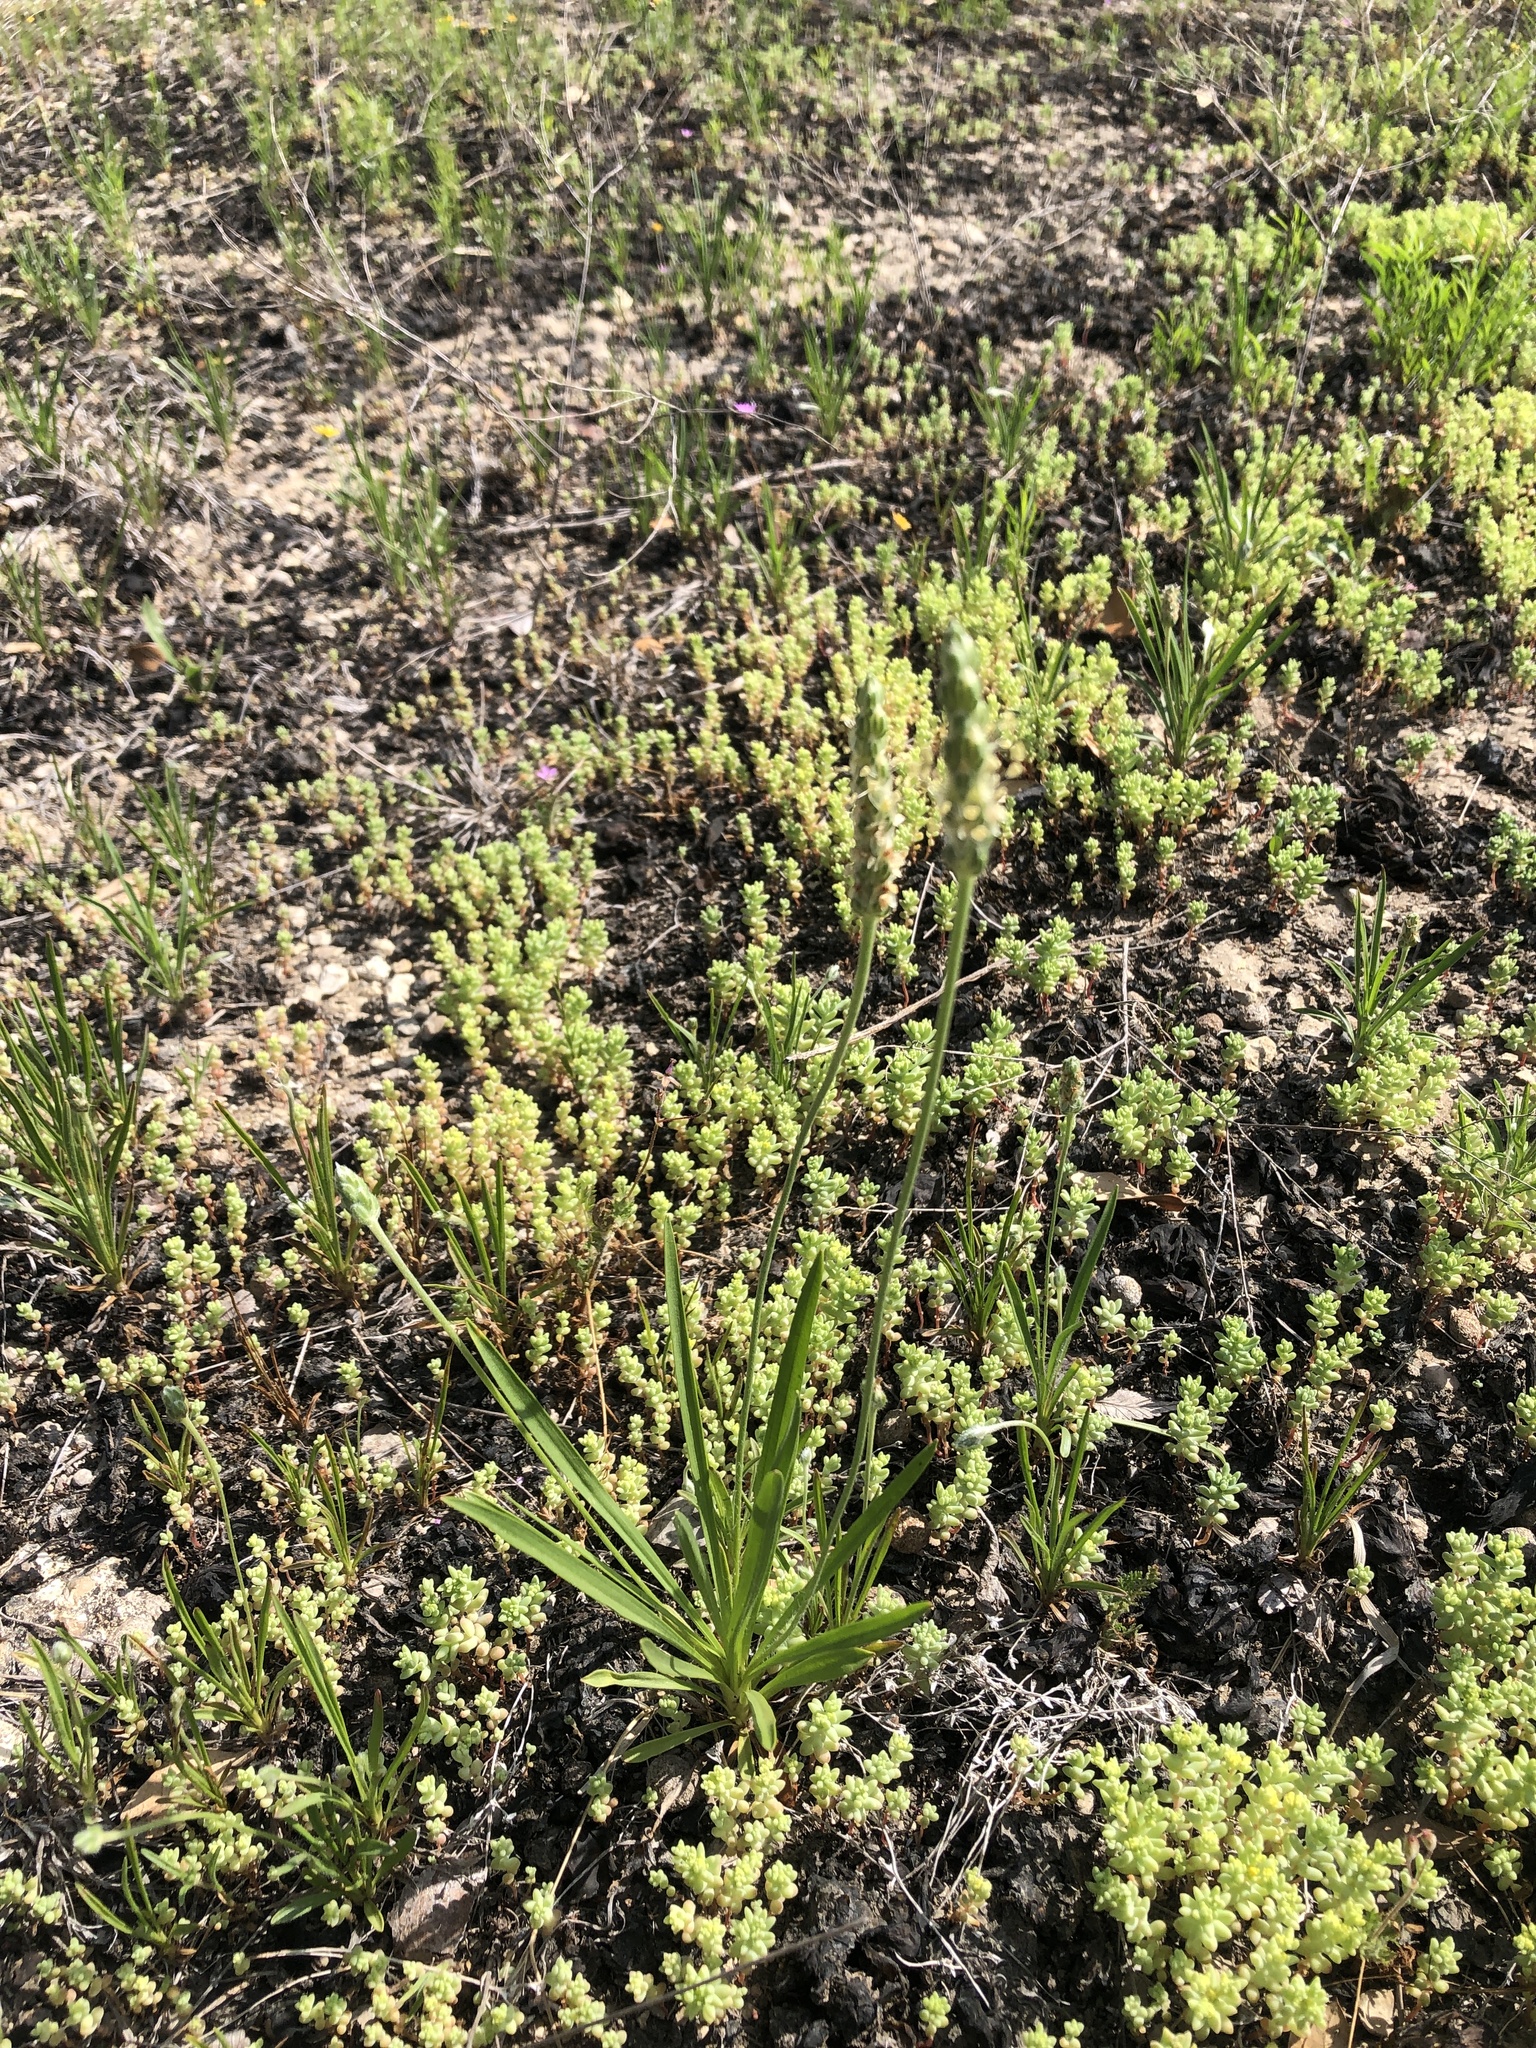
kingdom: Plantae
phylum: Tracheophyta
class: Magnoliopsida
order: Lamiales
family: Plantaginaceae
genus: Plantago
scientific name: Plantago wrightiana
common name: Wright's plantain
